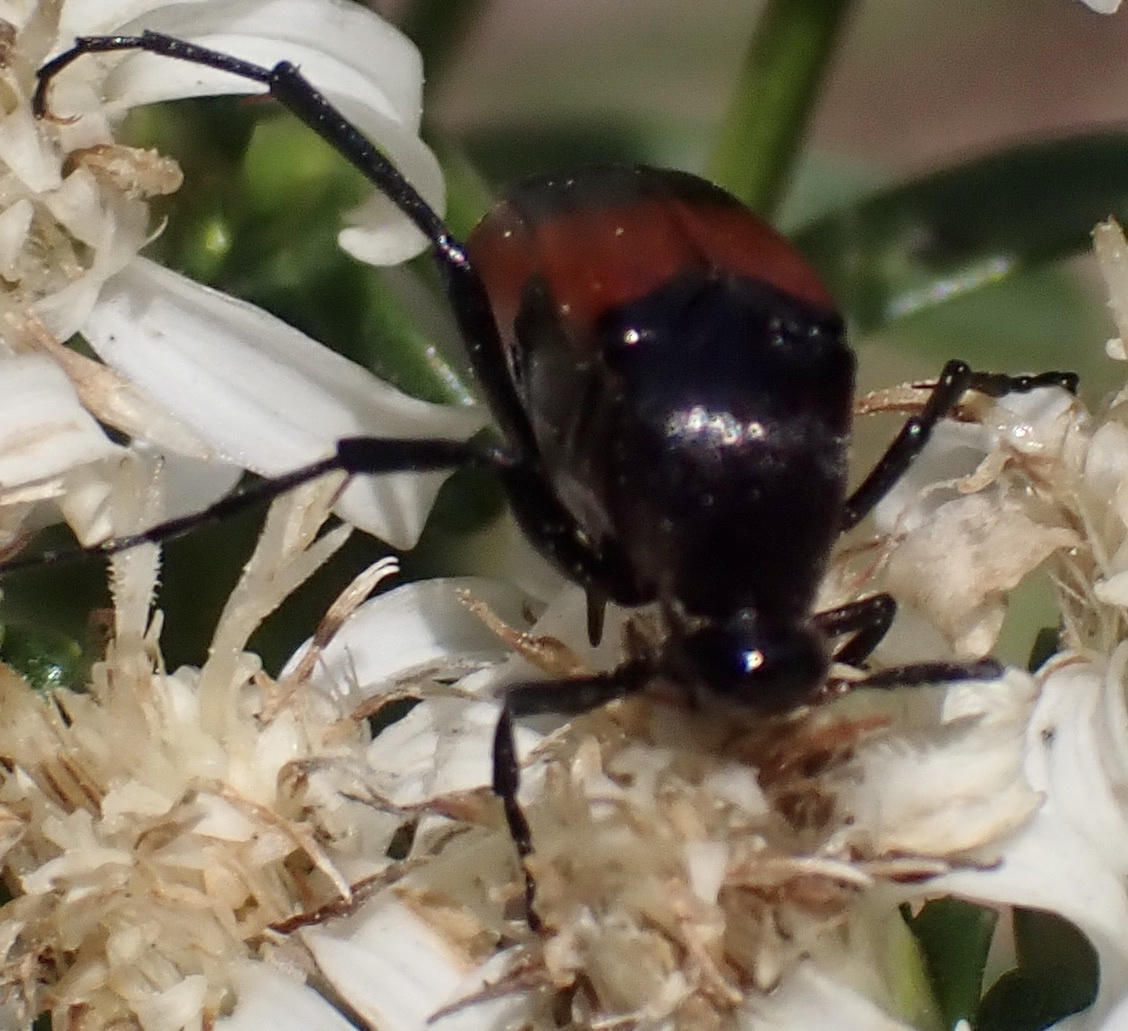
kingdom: Animalia
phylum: Arthropoda
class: Insecta
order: Coleoptera
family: Ripiphoridae
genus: Macrosiagon
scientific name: Macrosiagon cruentum
